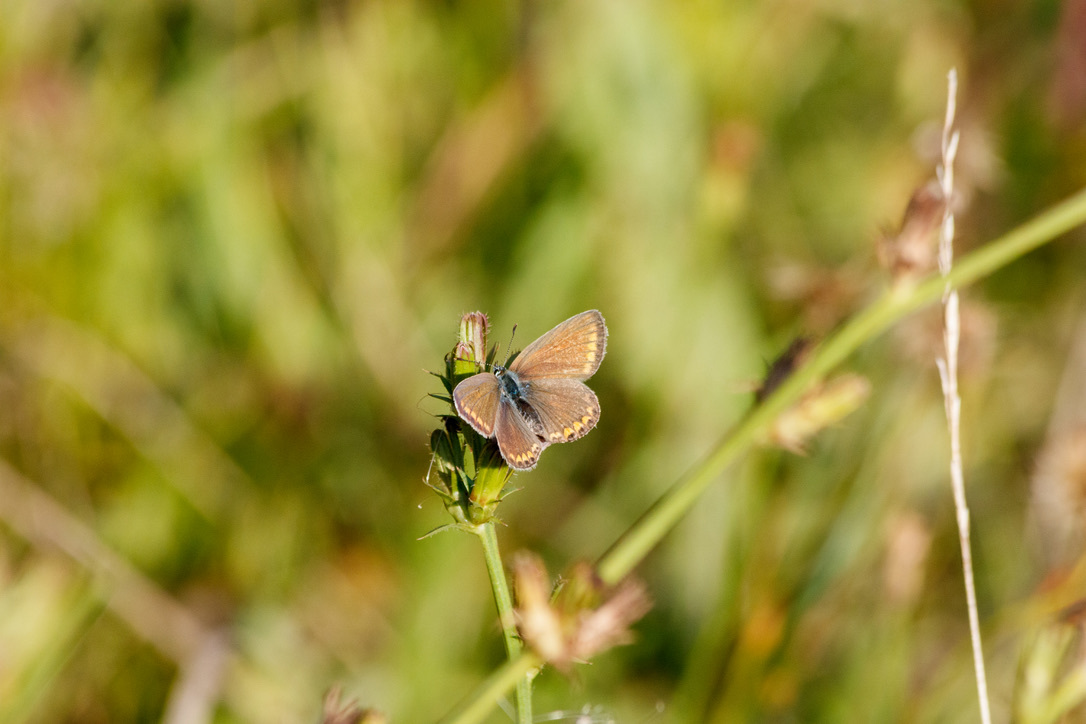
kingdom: Animalia
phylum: Arthropoda
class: Insecta
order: Lepidoptera
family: Lycaenidae
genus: Polyommatus
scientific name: Polyommatus icarus
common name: Common blue
